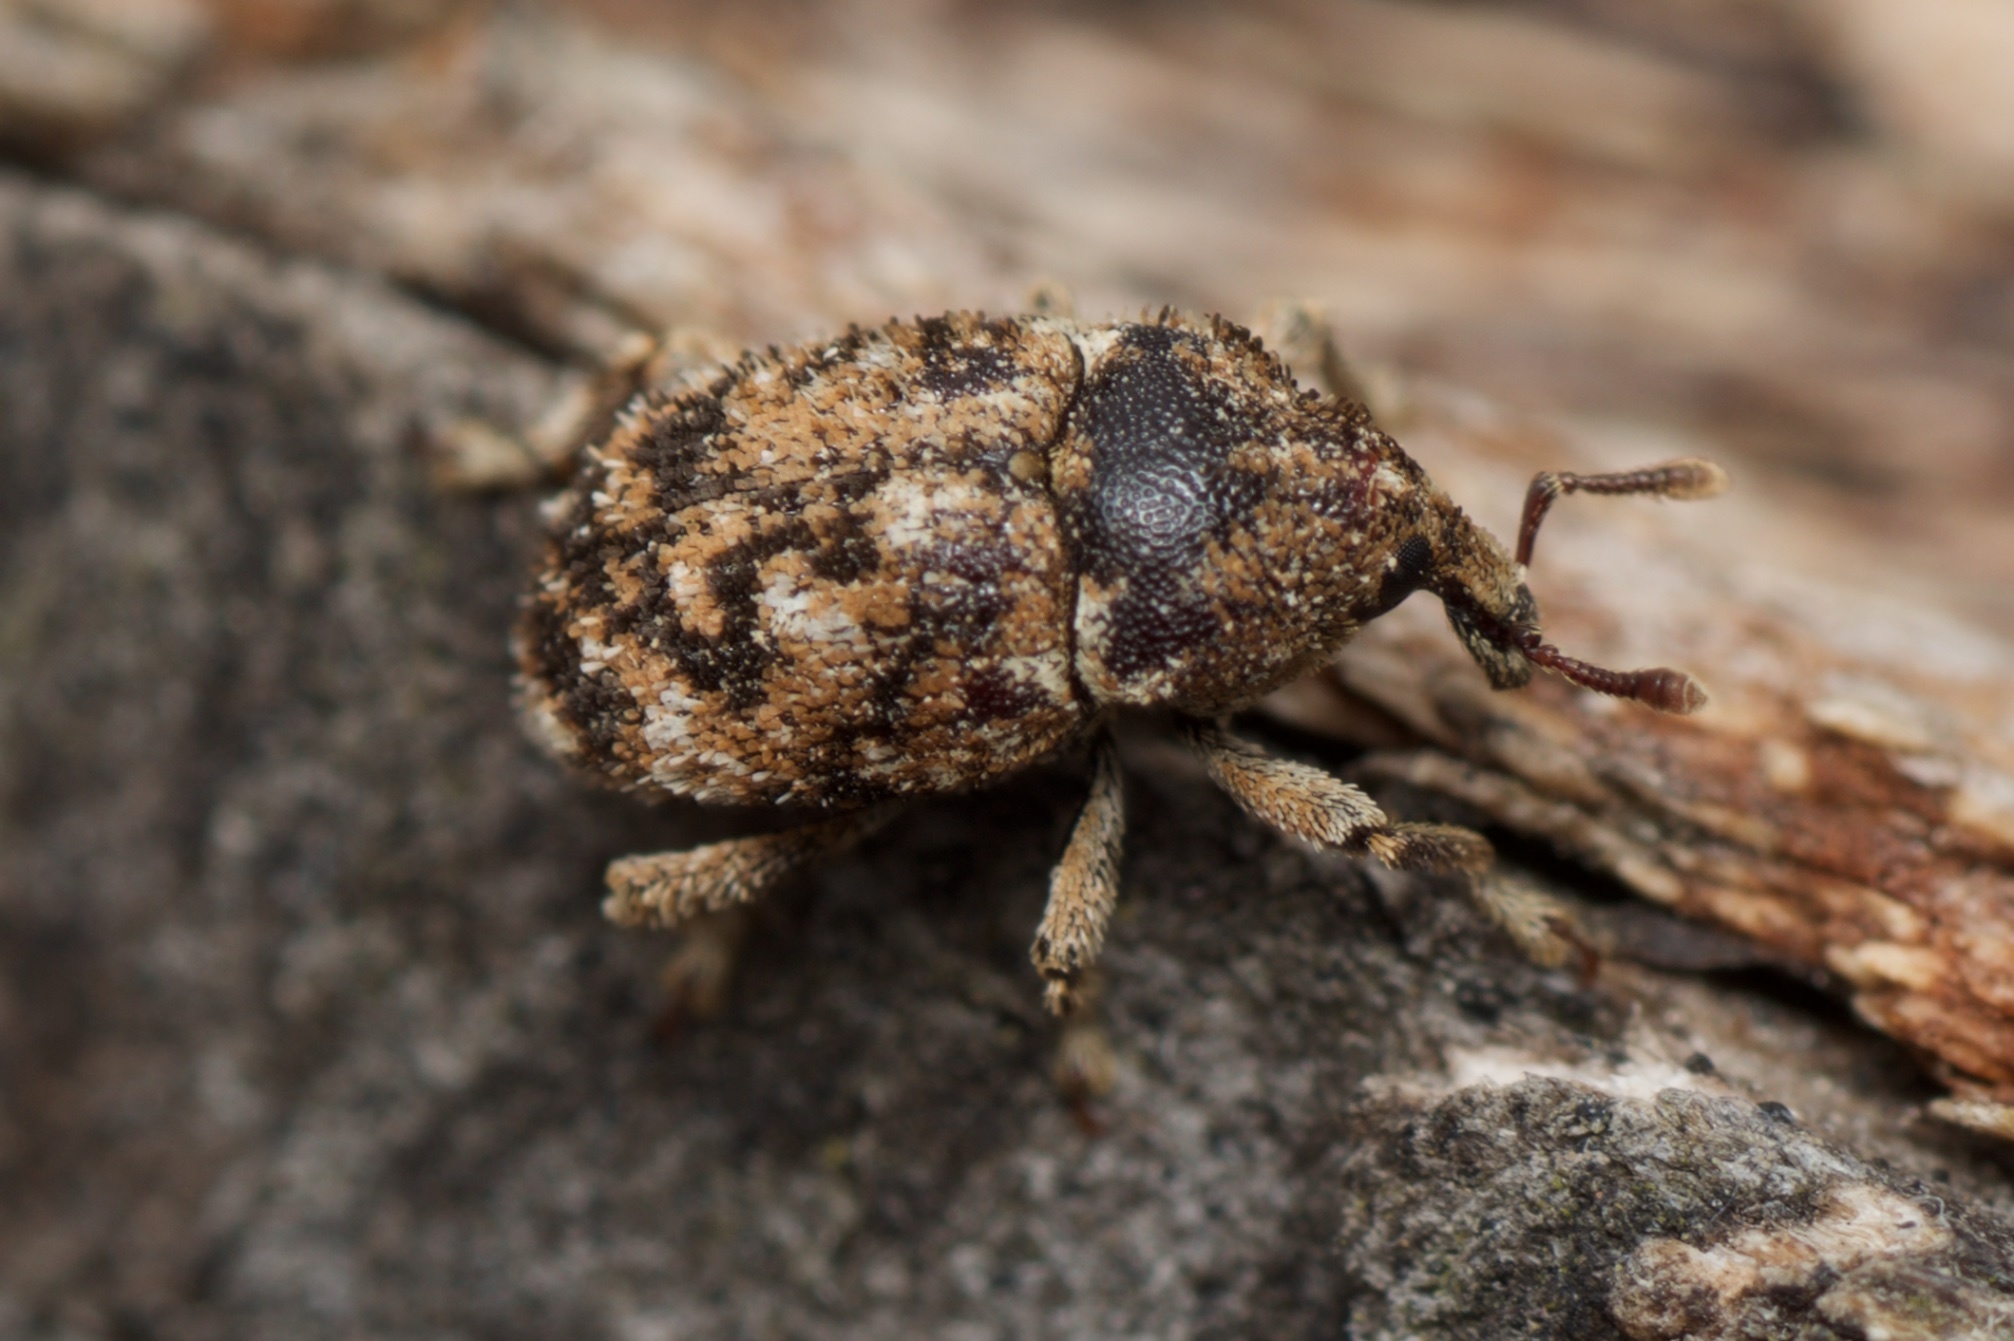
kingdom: Animalia
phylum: Arthropoda
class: Insecta
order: Coleoptera
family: Curculionidae
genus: Mesoreda
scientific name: Mesoreda
